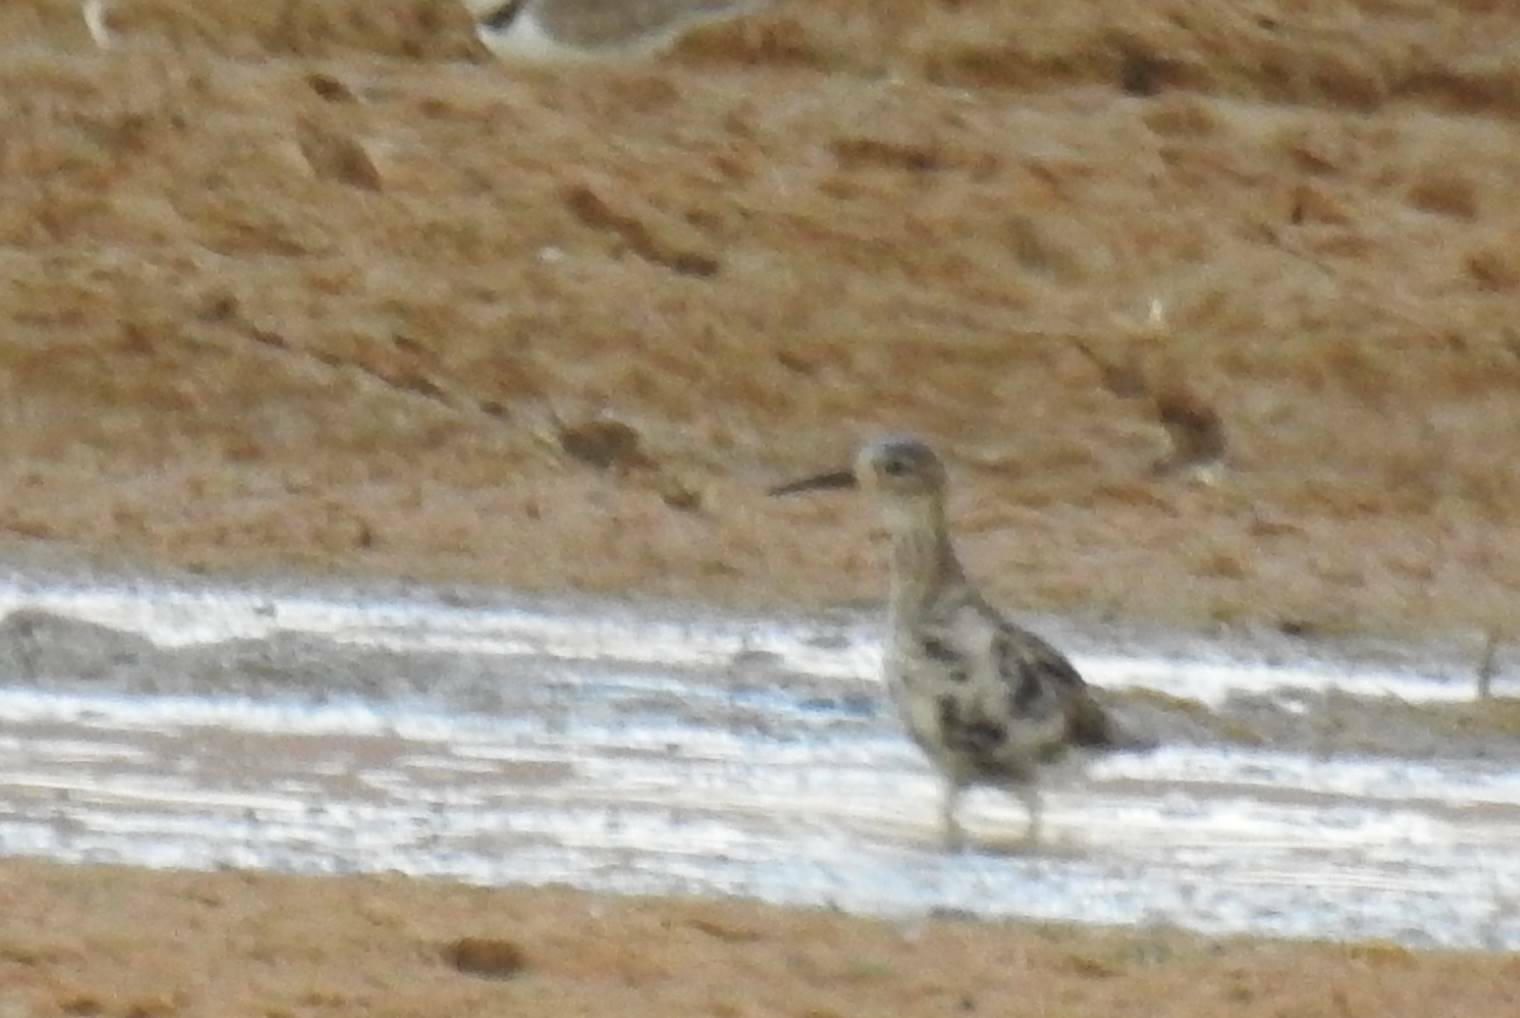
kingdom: Animalia
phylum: Chordata
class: Aves
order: Charadriiformes
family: Scolopacidae
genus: Calidris
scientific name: Calidris pugnax
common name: Ruff
